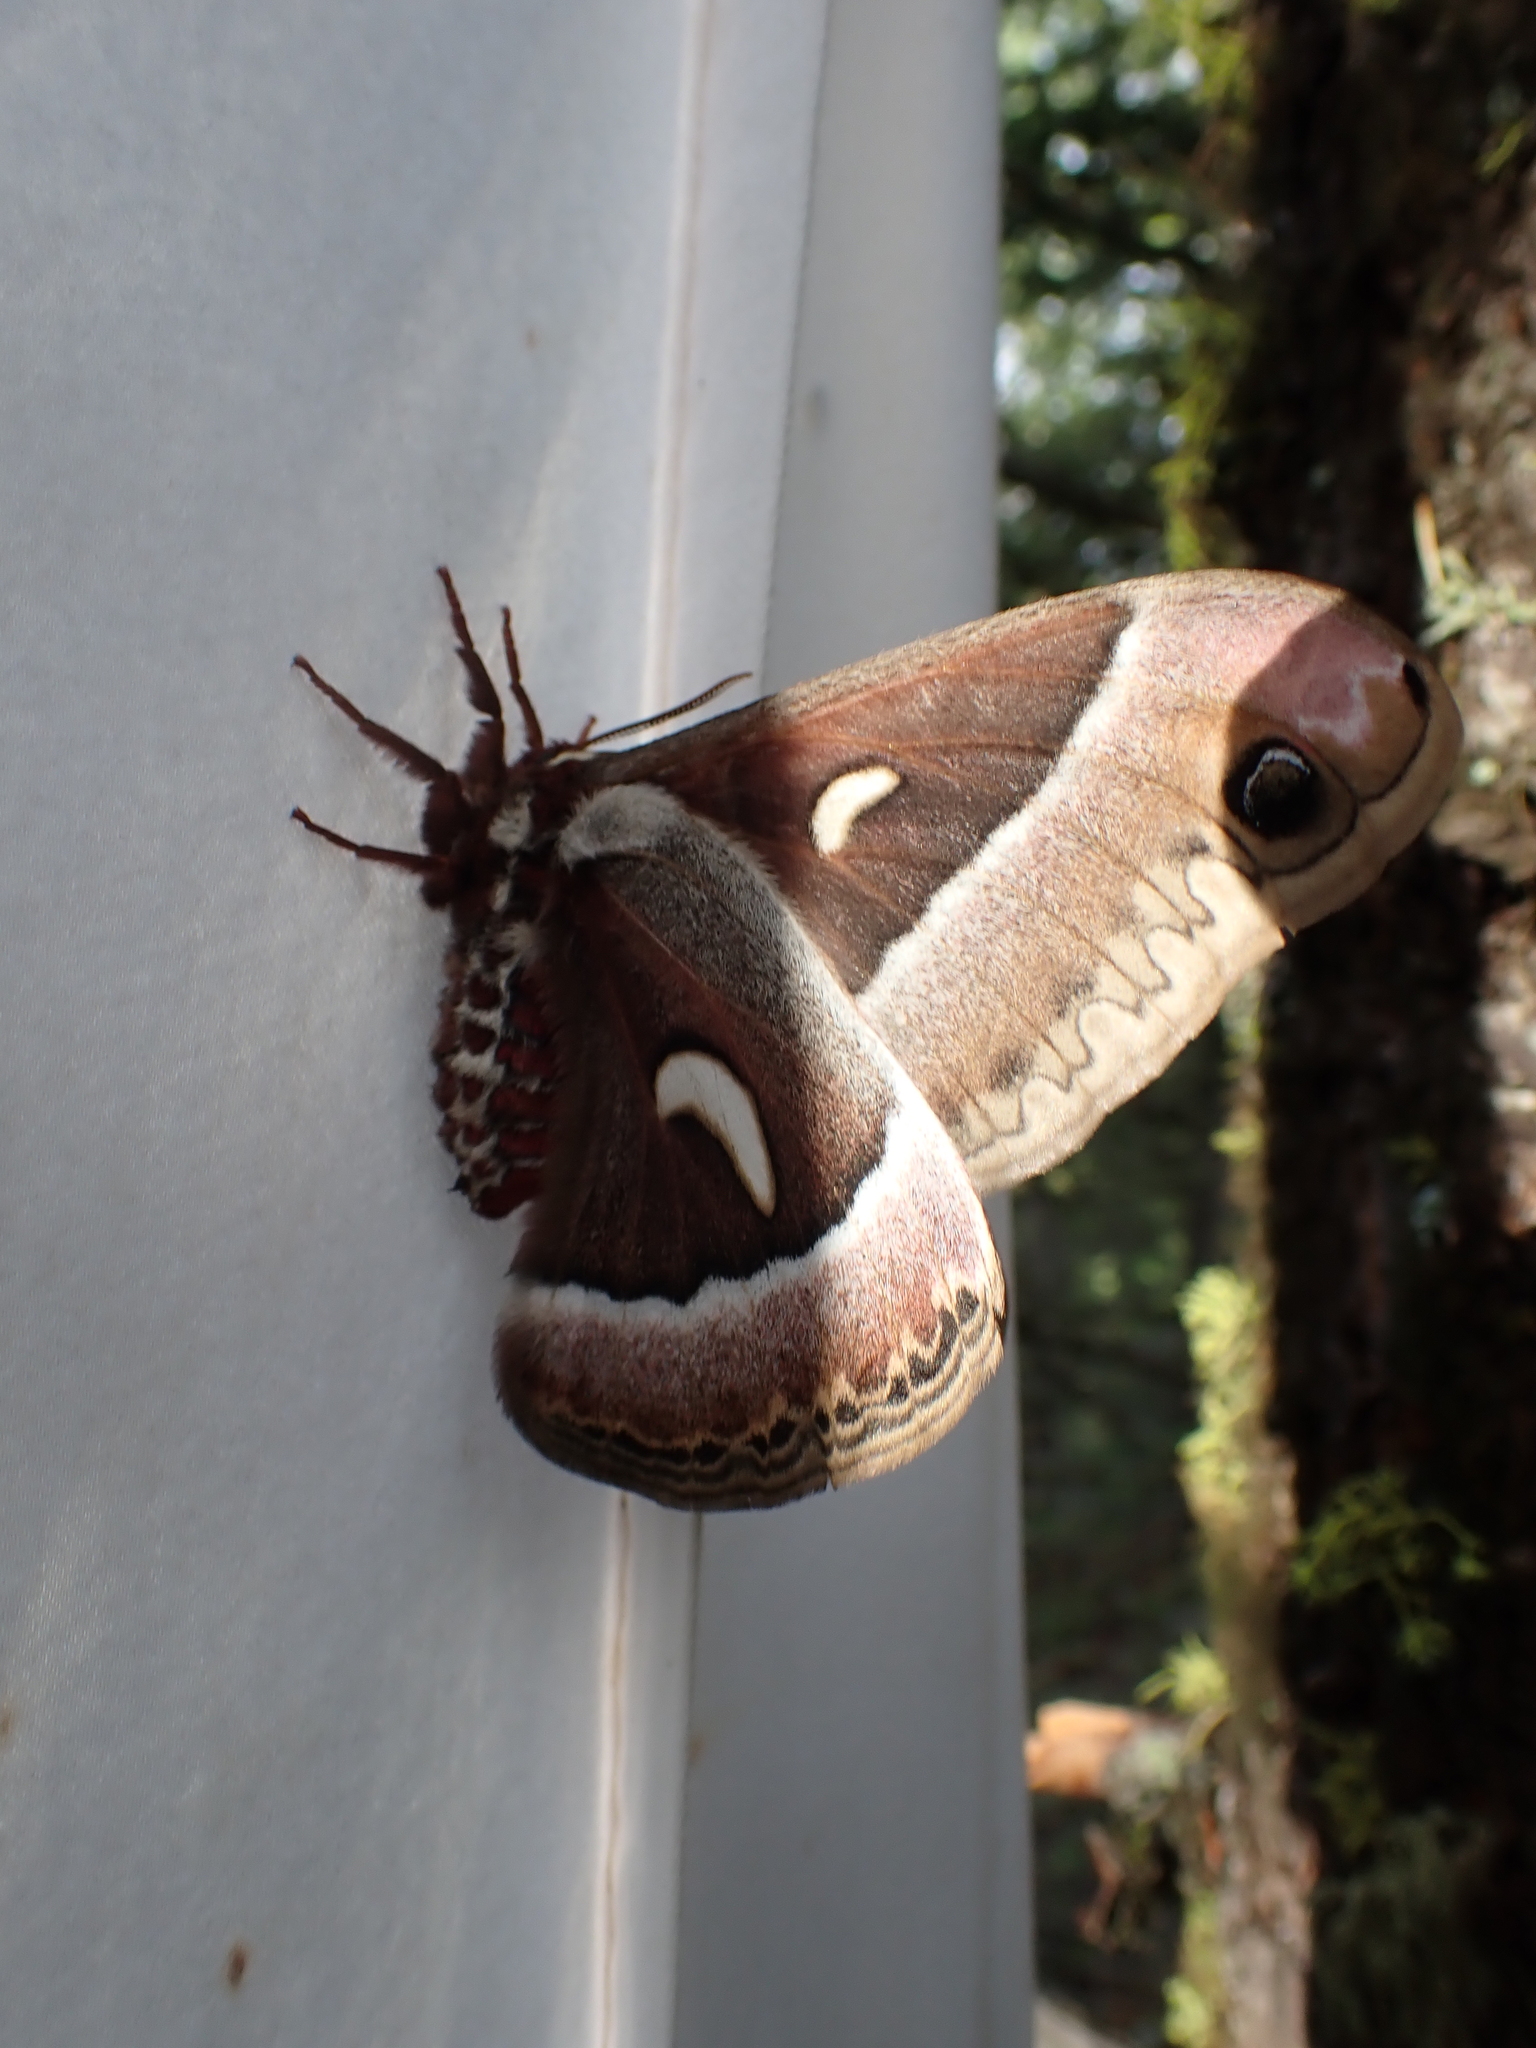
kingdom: Animalia
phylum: Arthropoda
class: Insecta
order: Lepidoptera
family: Saturniidae
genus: Hyalophora
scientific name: Hyalophora euryalus
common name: Ceanothus silkmoth
